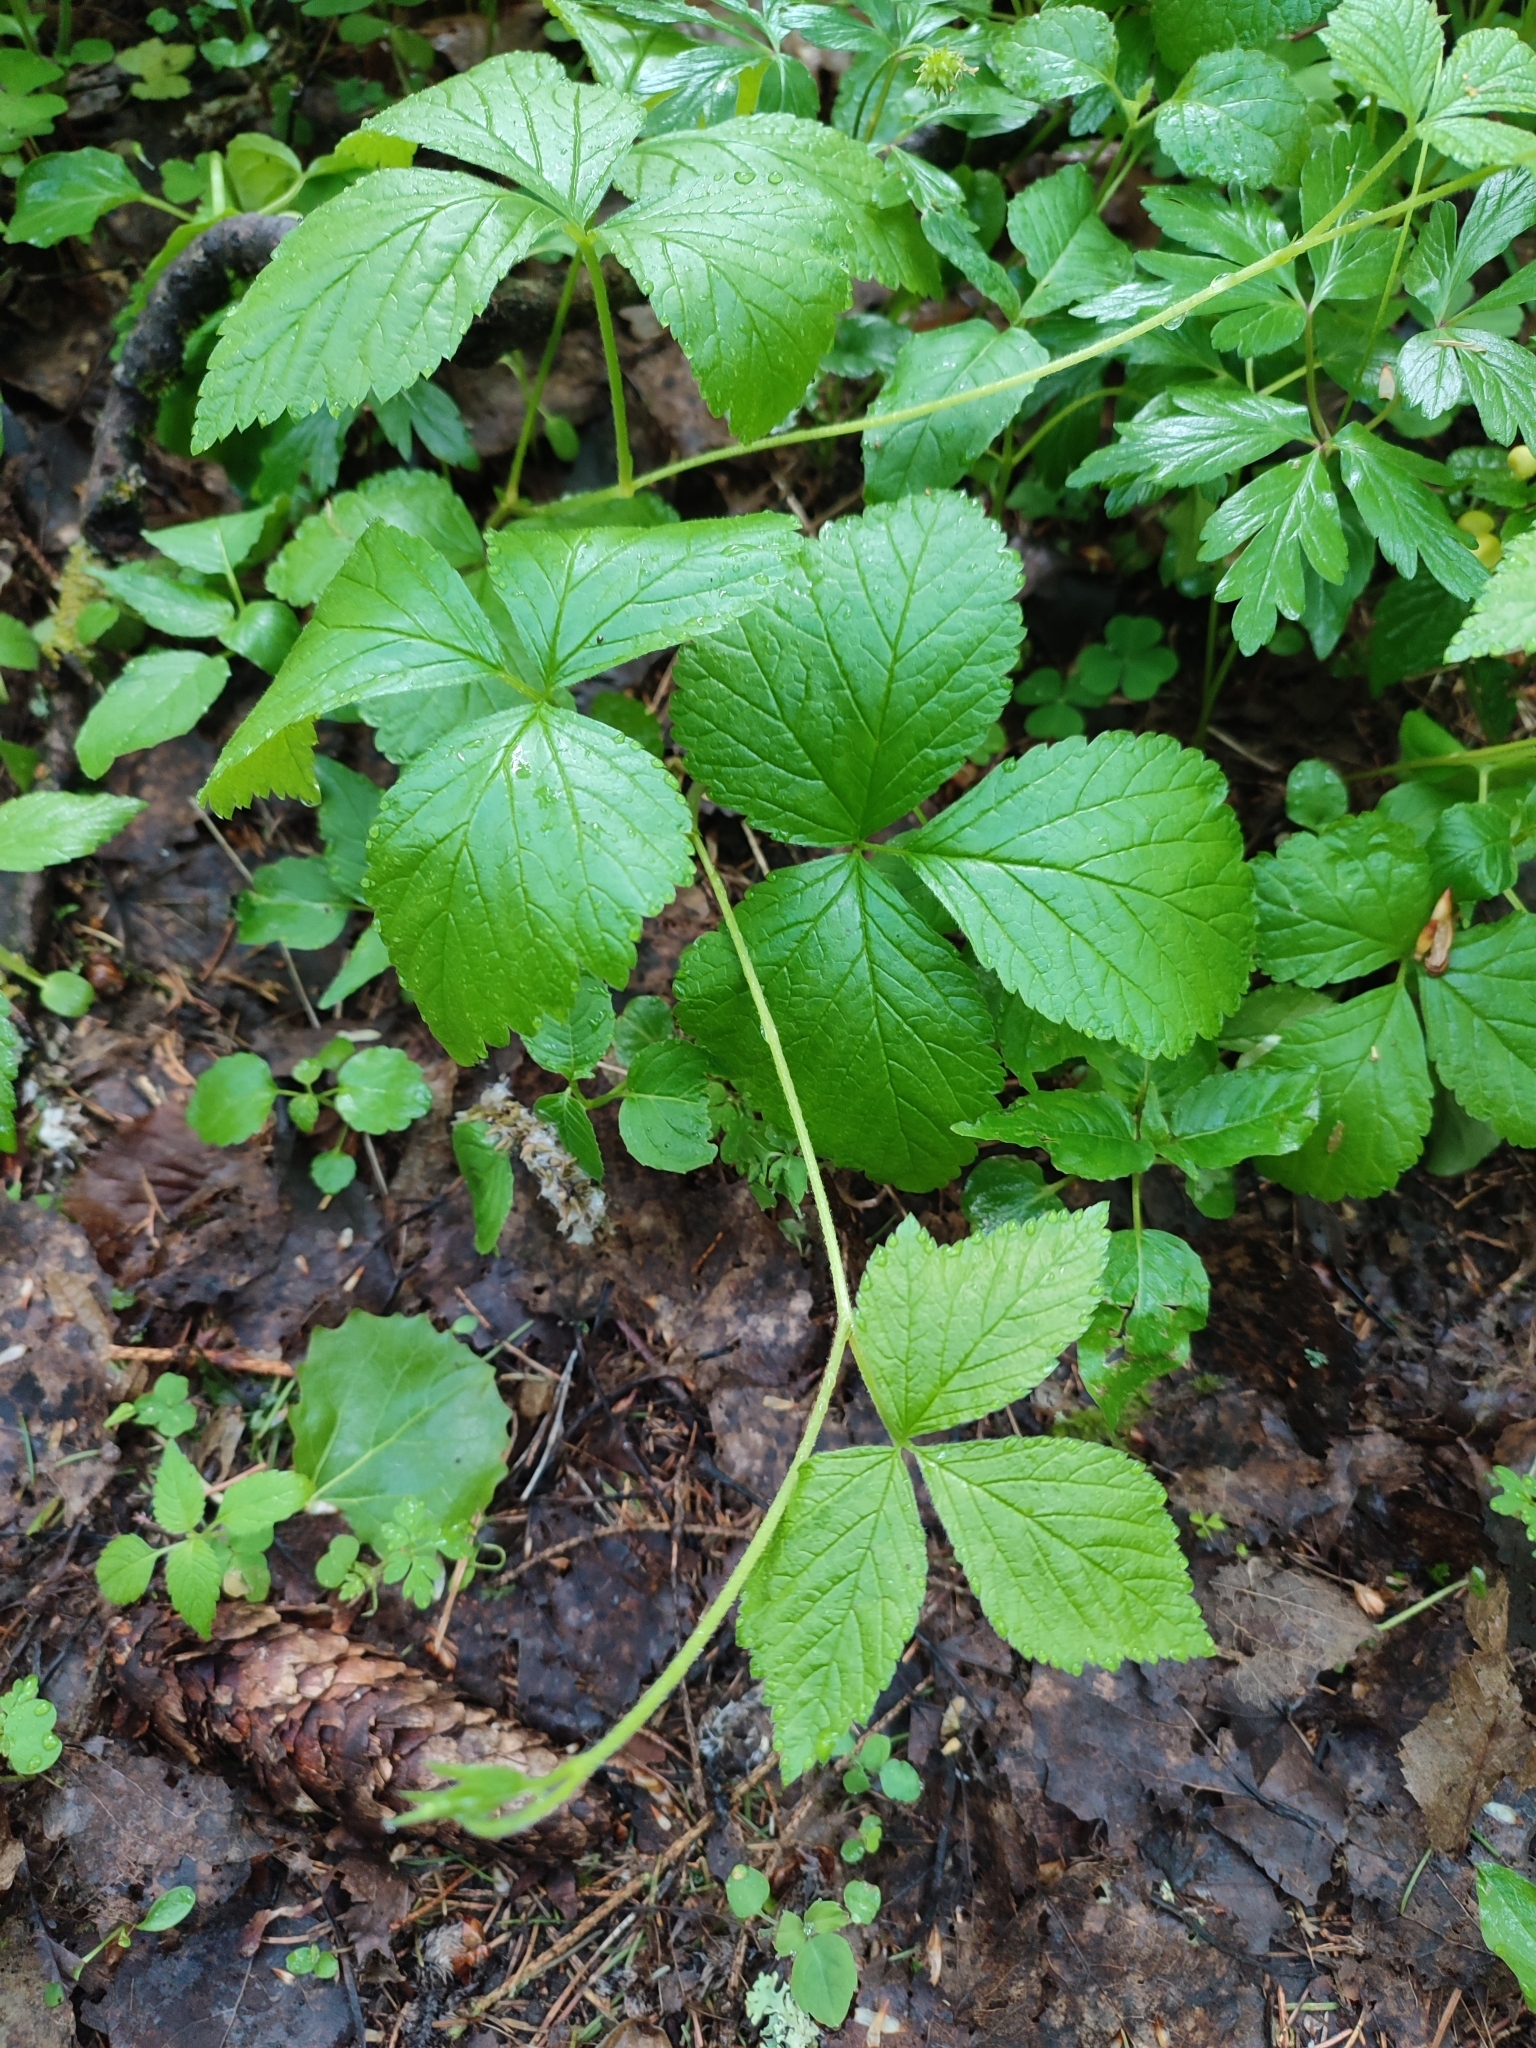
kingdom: Plantae
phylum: Tracheophyta
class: Magnoliopsida
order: Rosales
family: Rosaceae
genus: Rubus
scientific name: Rubus saxatilis
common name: Stone bramble
